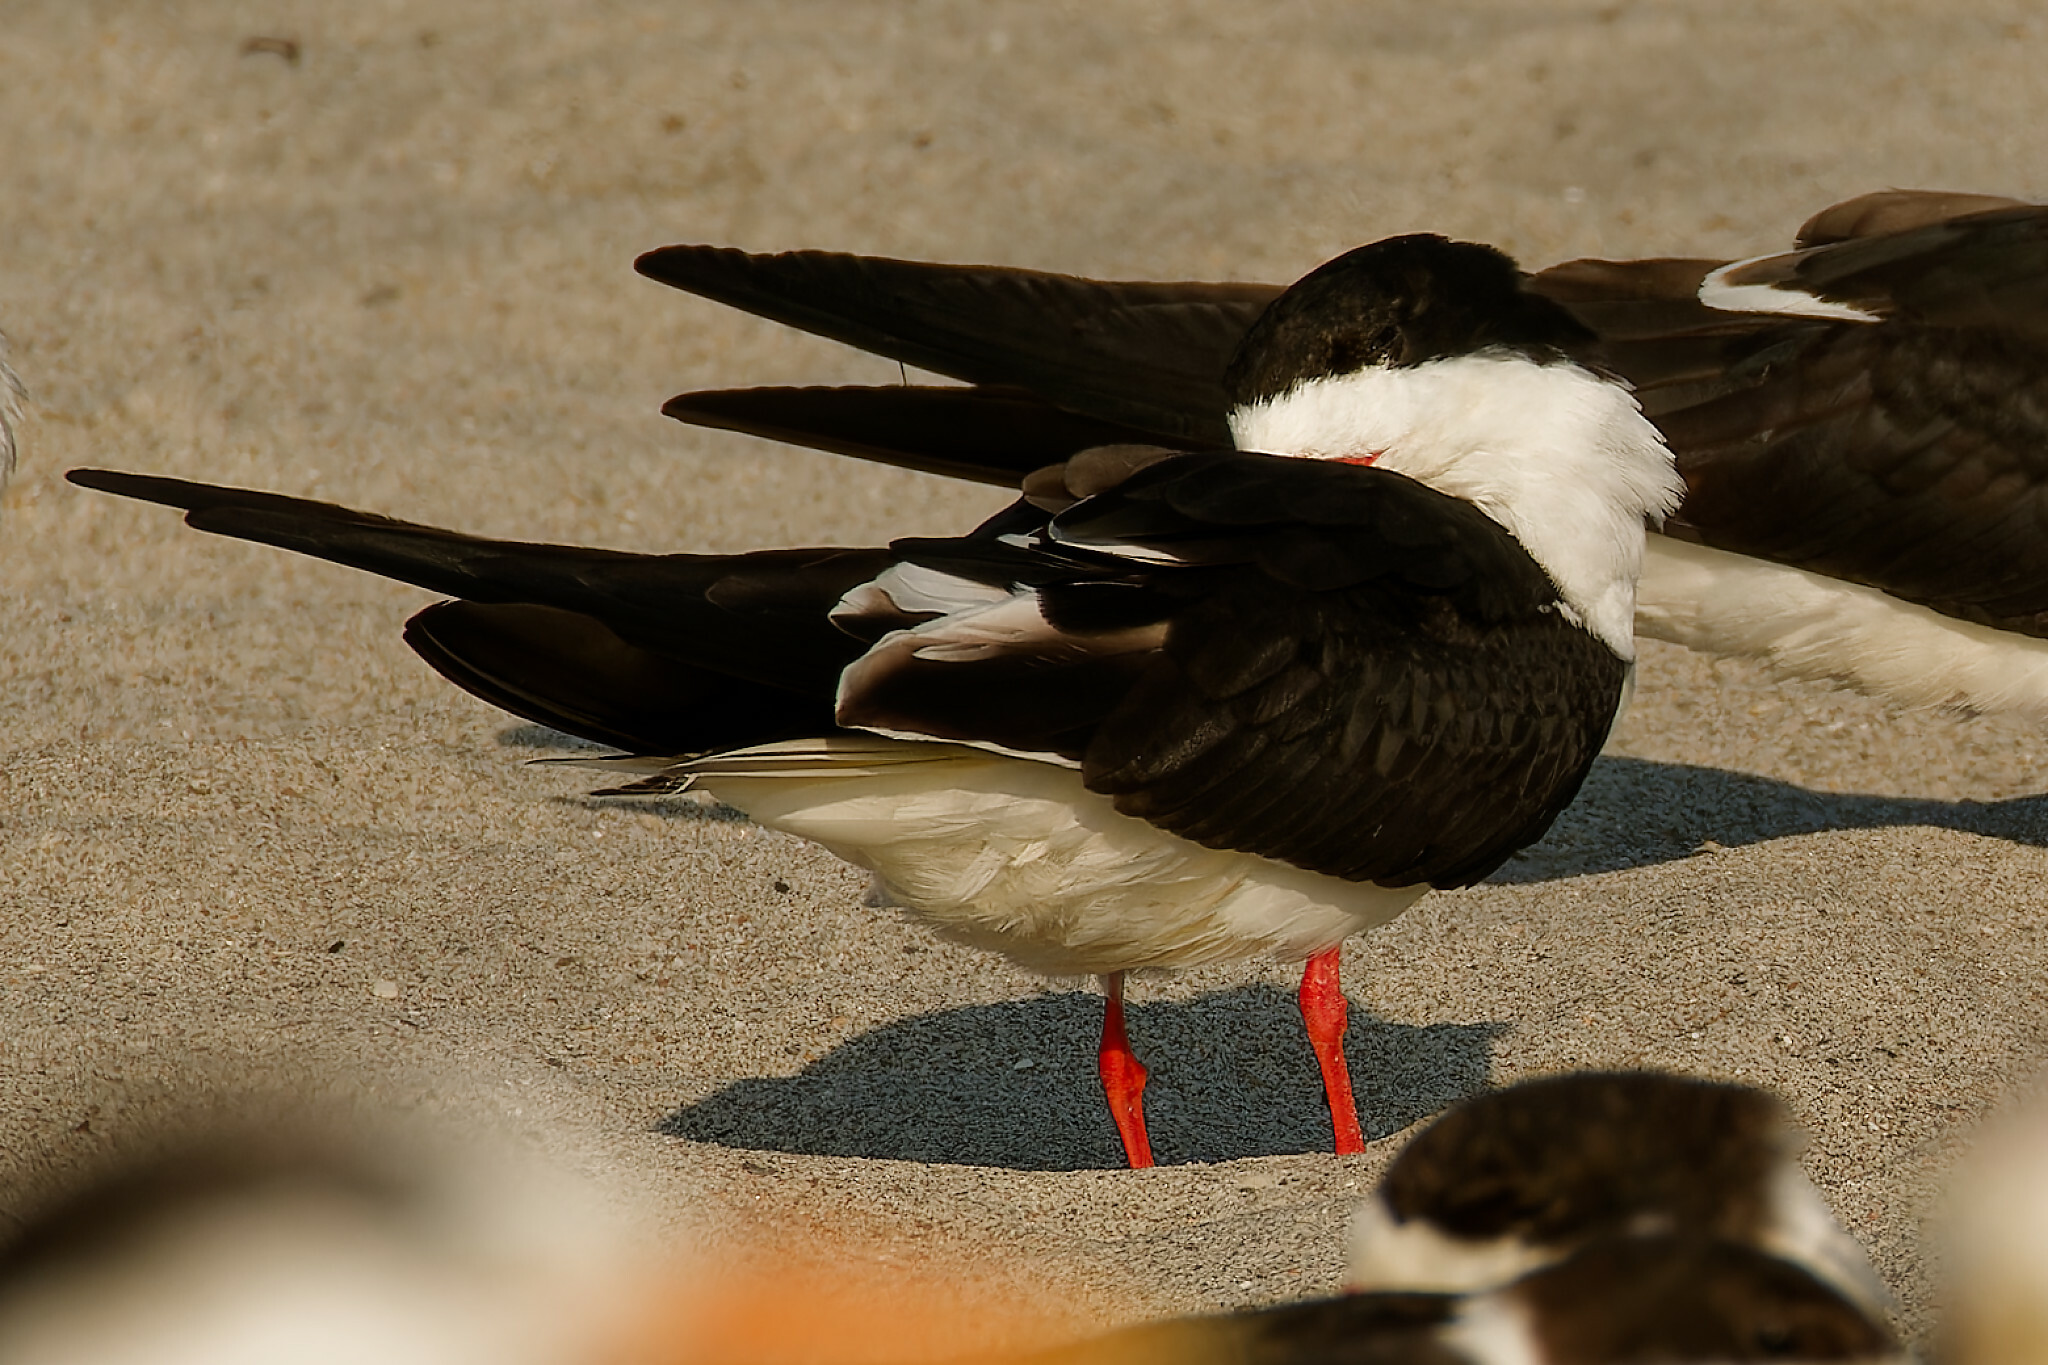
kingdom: Animalia
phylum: Chordata
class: Aves
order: Charadriiformes
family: Laridae
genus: Rynchops
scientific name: Rynchops niger
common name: Black skimmer
